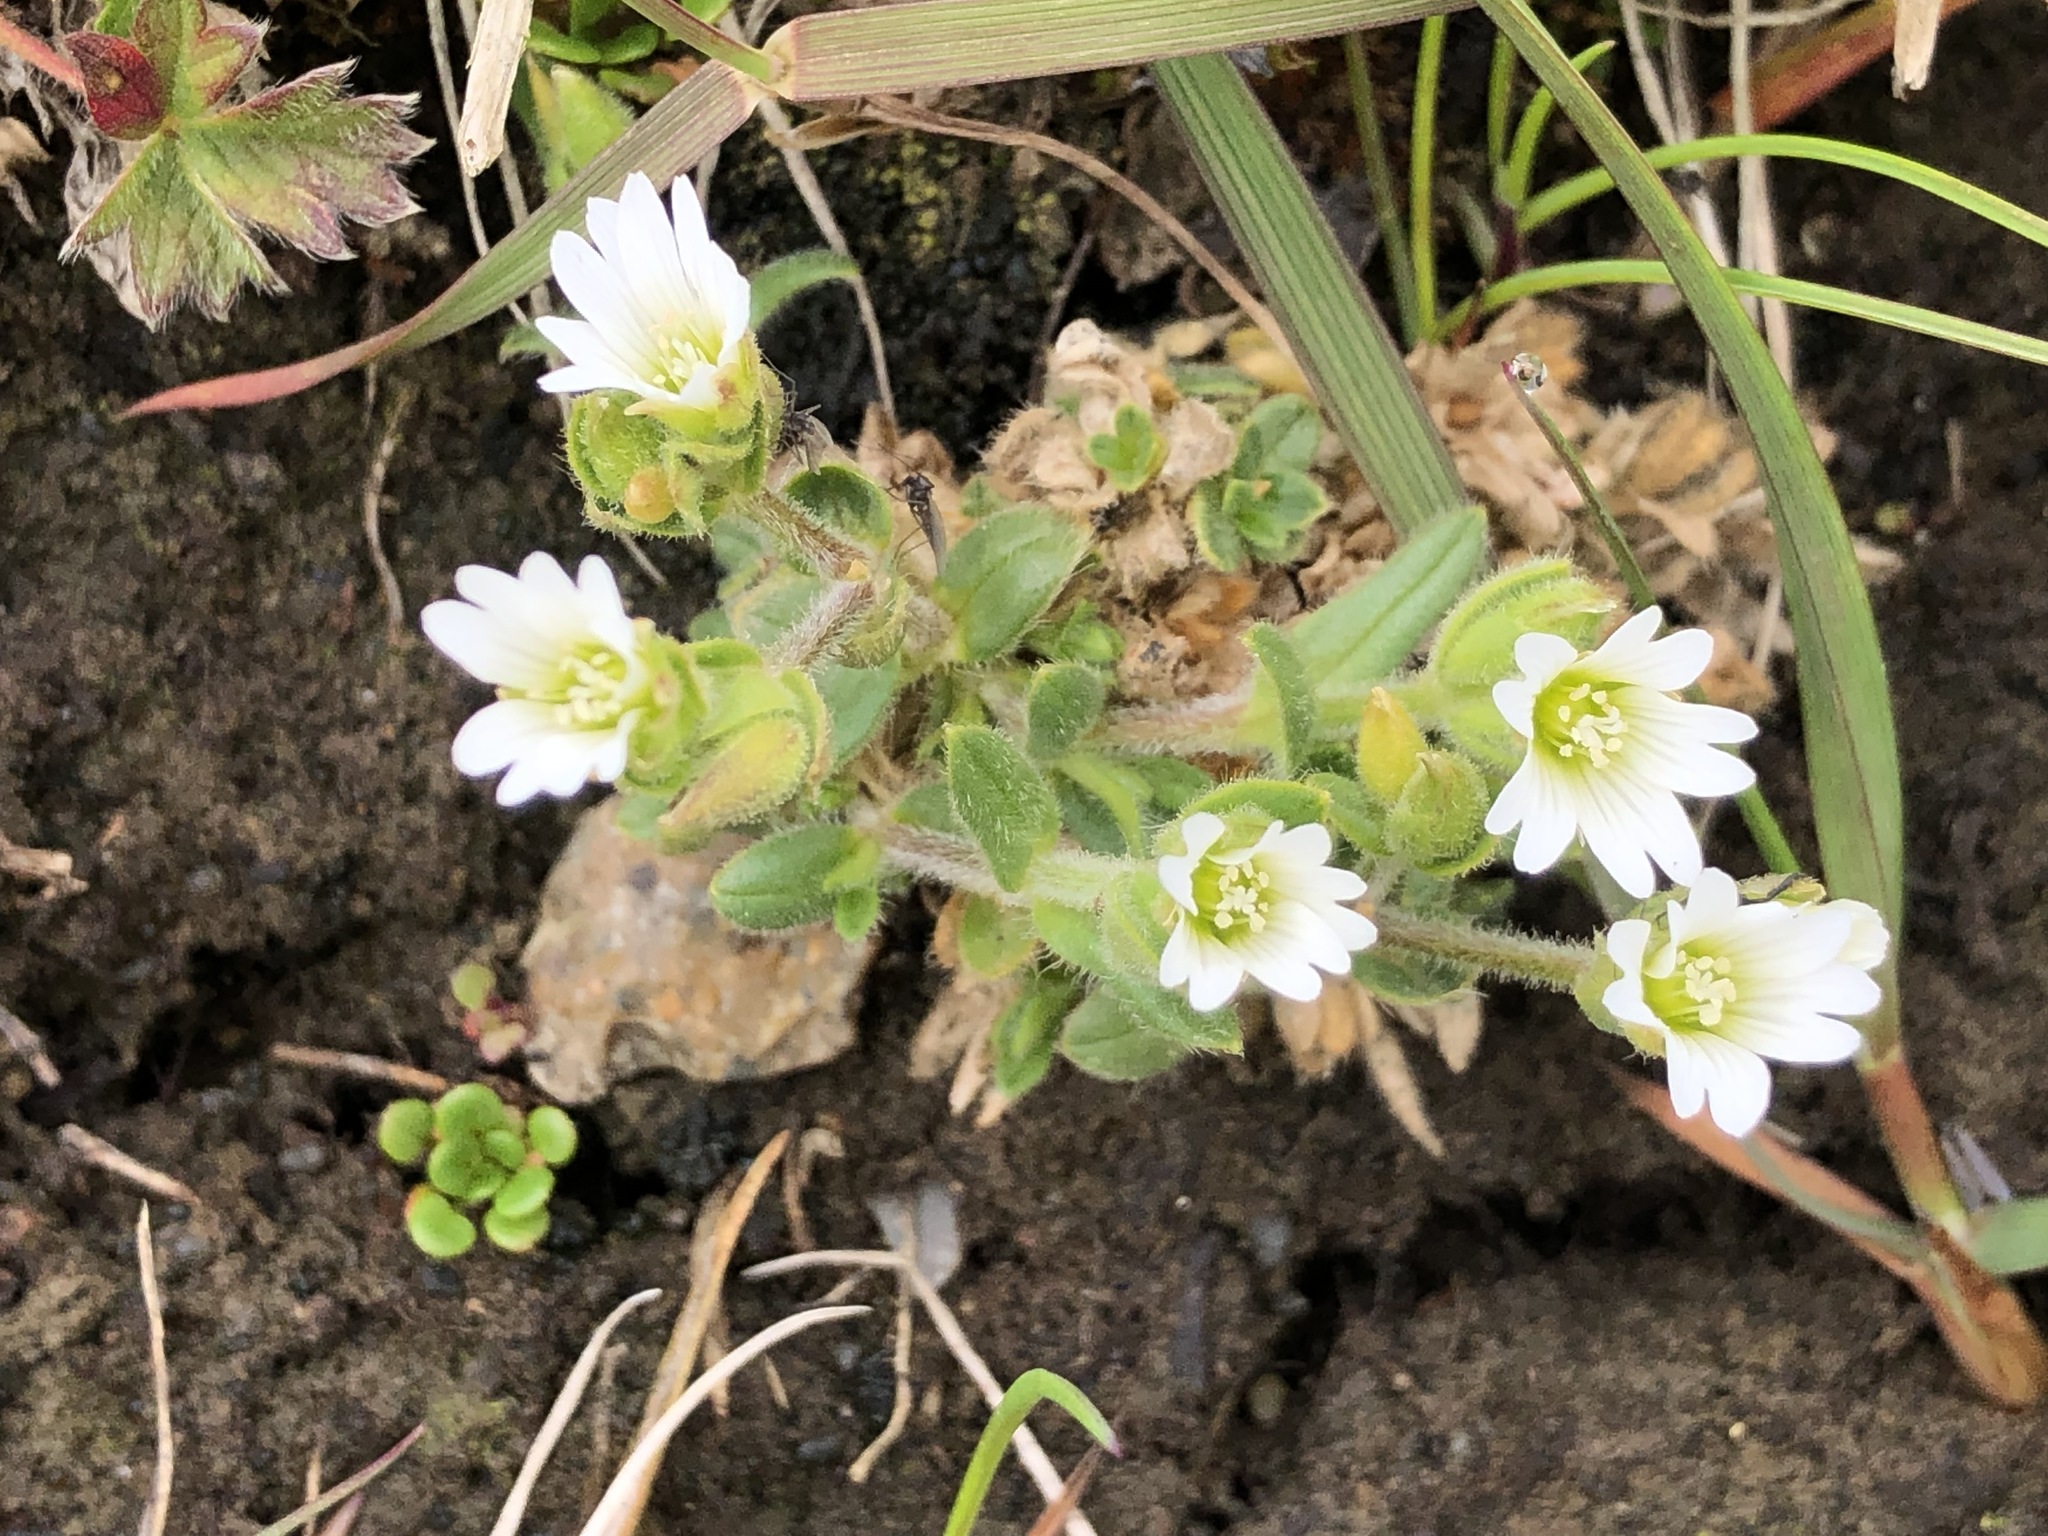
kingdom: Plantae
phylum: Tracheophyta
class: Magnoliopsida
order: Caryophyllales
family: Caryophyllaceae
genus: Cerastium
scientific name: Cerastium beeringianum
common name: Bering mouse-ear chickweed
